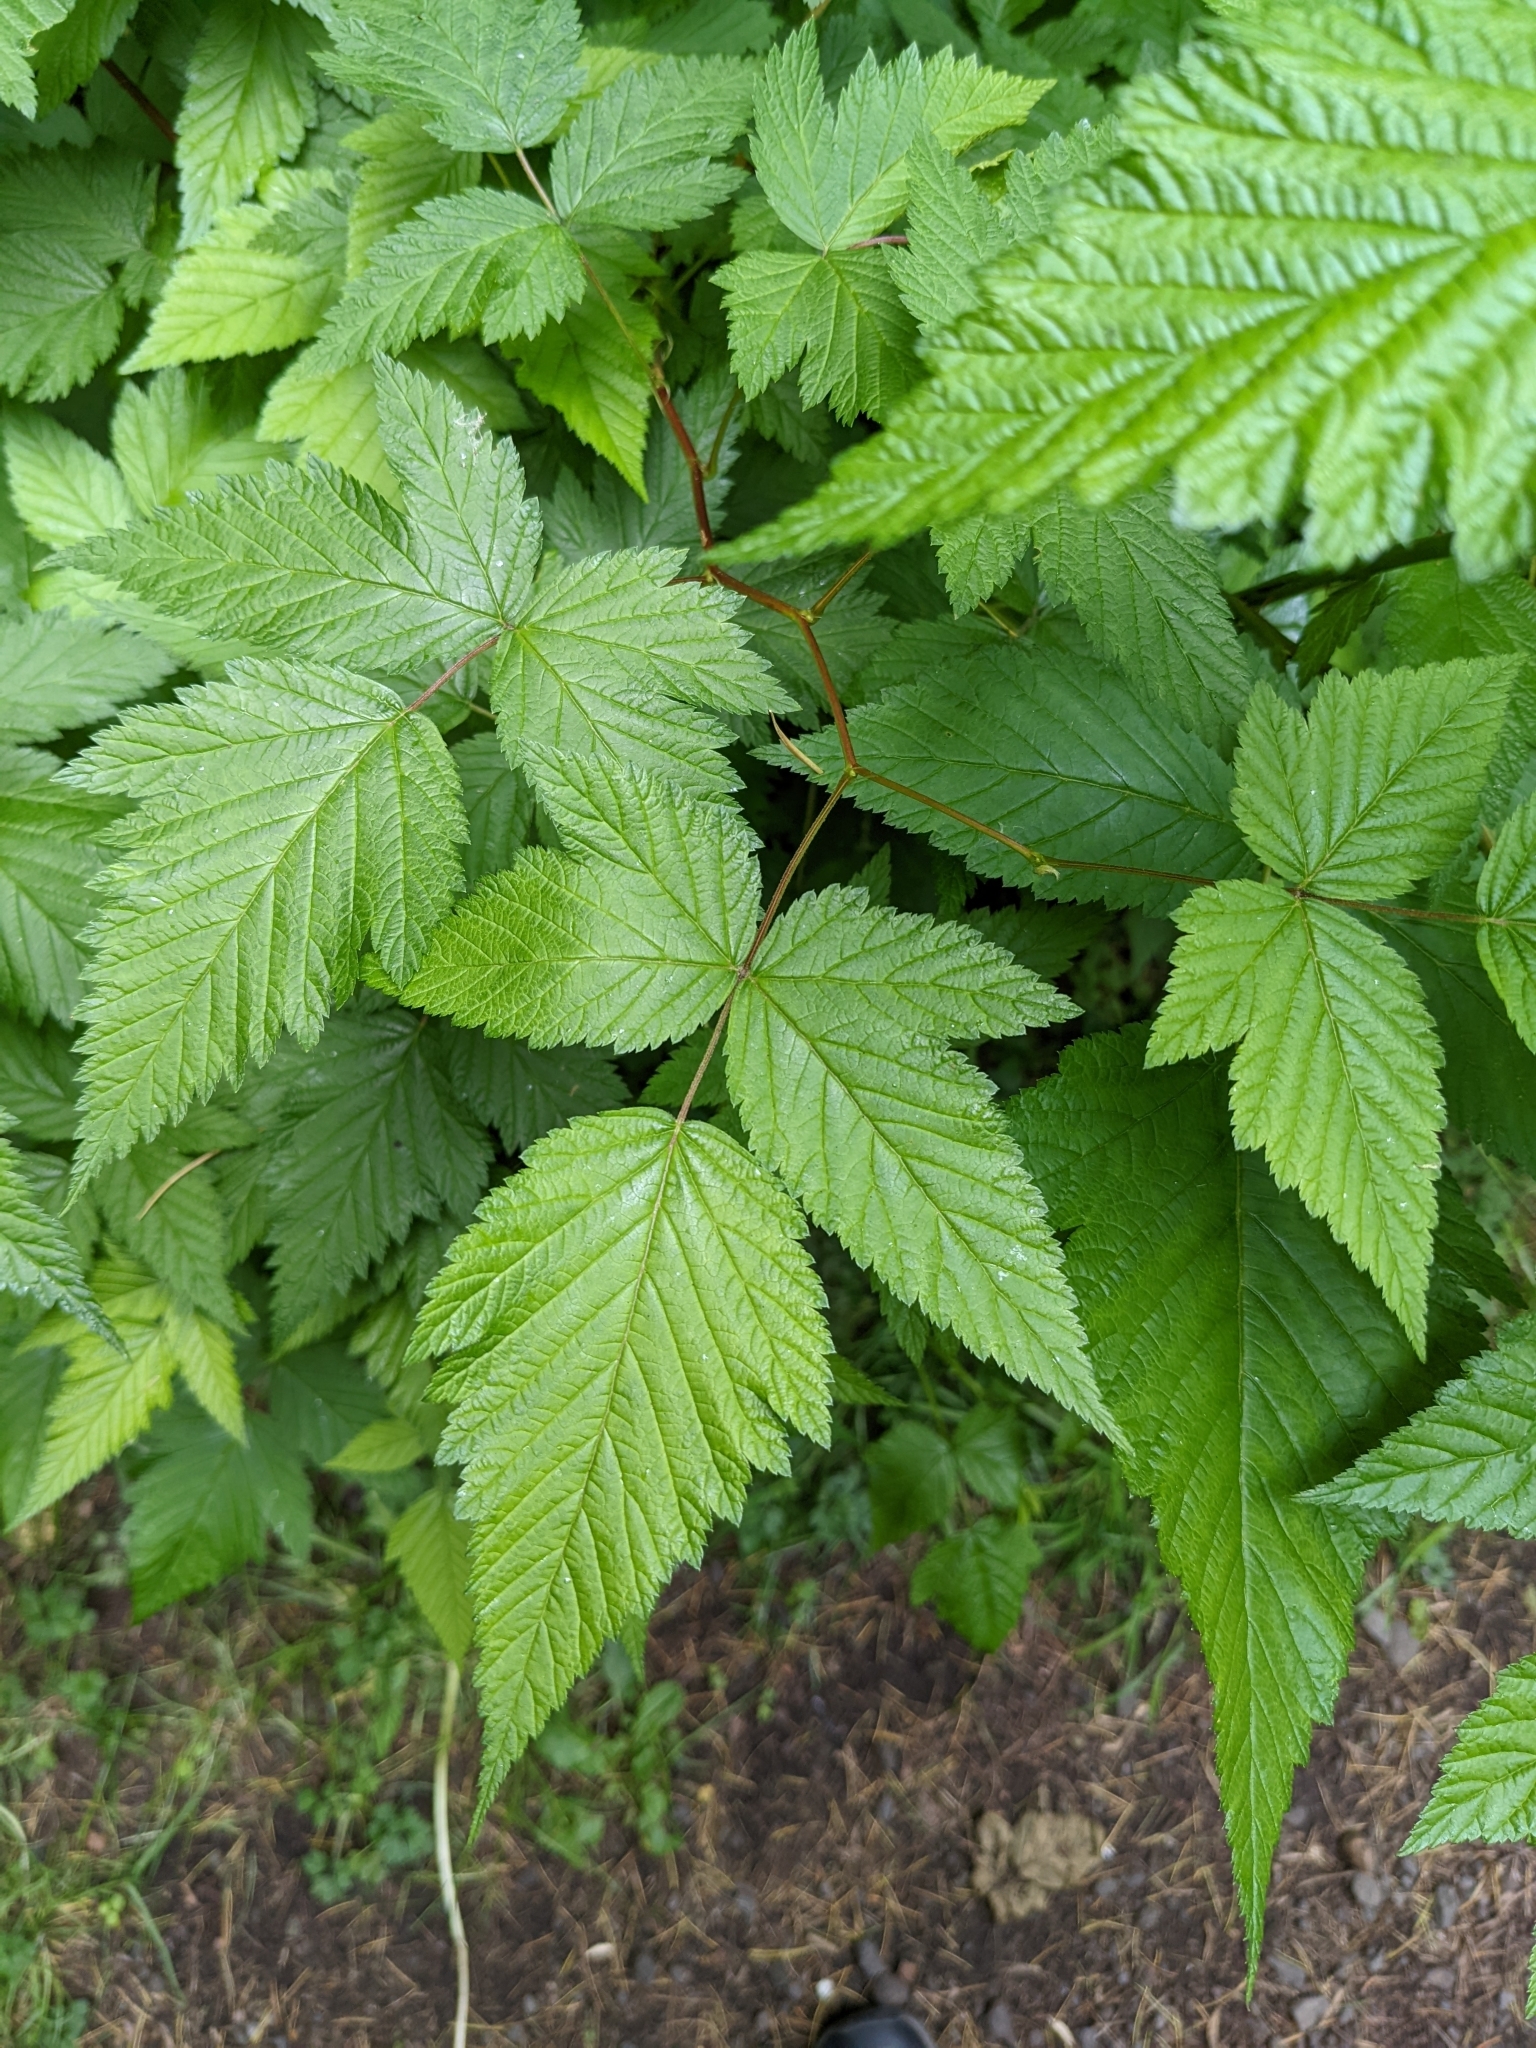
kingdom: Plantae
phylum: Tracheophyta
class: Magnoliopsida
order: Rosales
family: Rosaceae
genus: Rubus
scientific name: Rubus spectabilis
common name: Salmonberry
